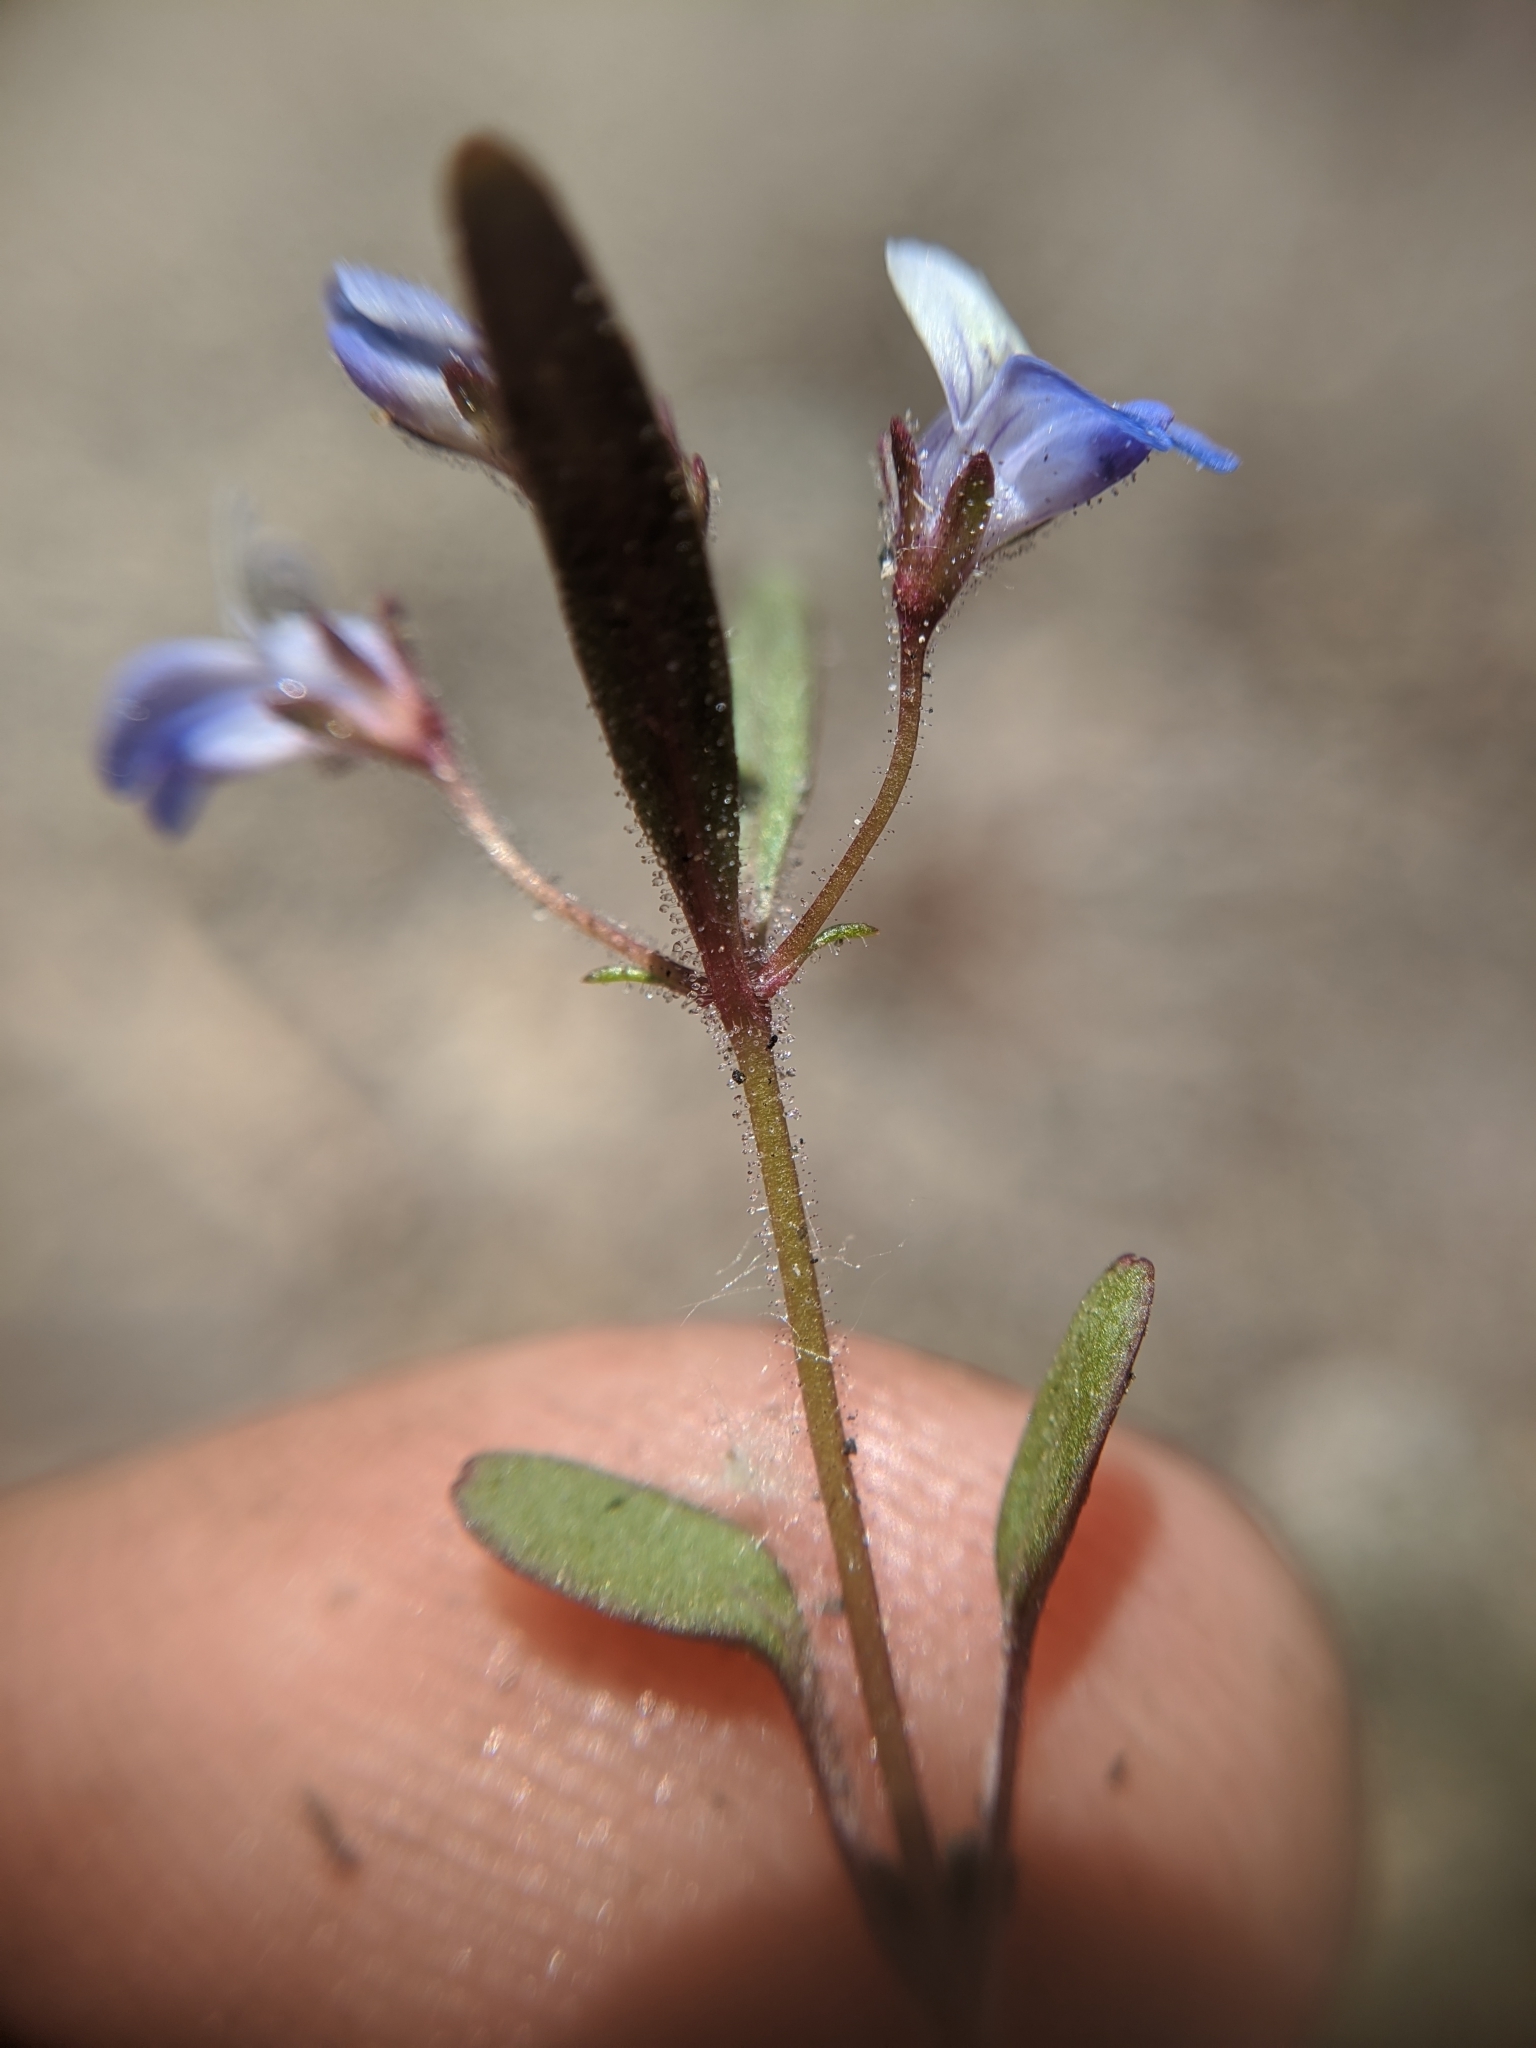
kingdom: Plantae
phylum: Tracheophyta
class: Magnoliopsida
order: Lamiales
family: Plantaginaceae
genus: Collinsia
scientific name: Collinsia torreyi
